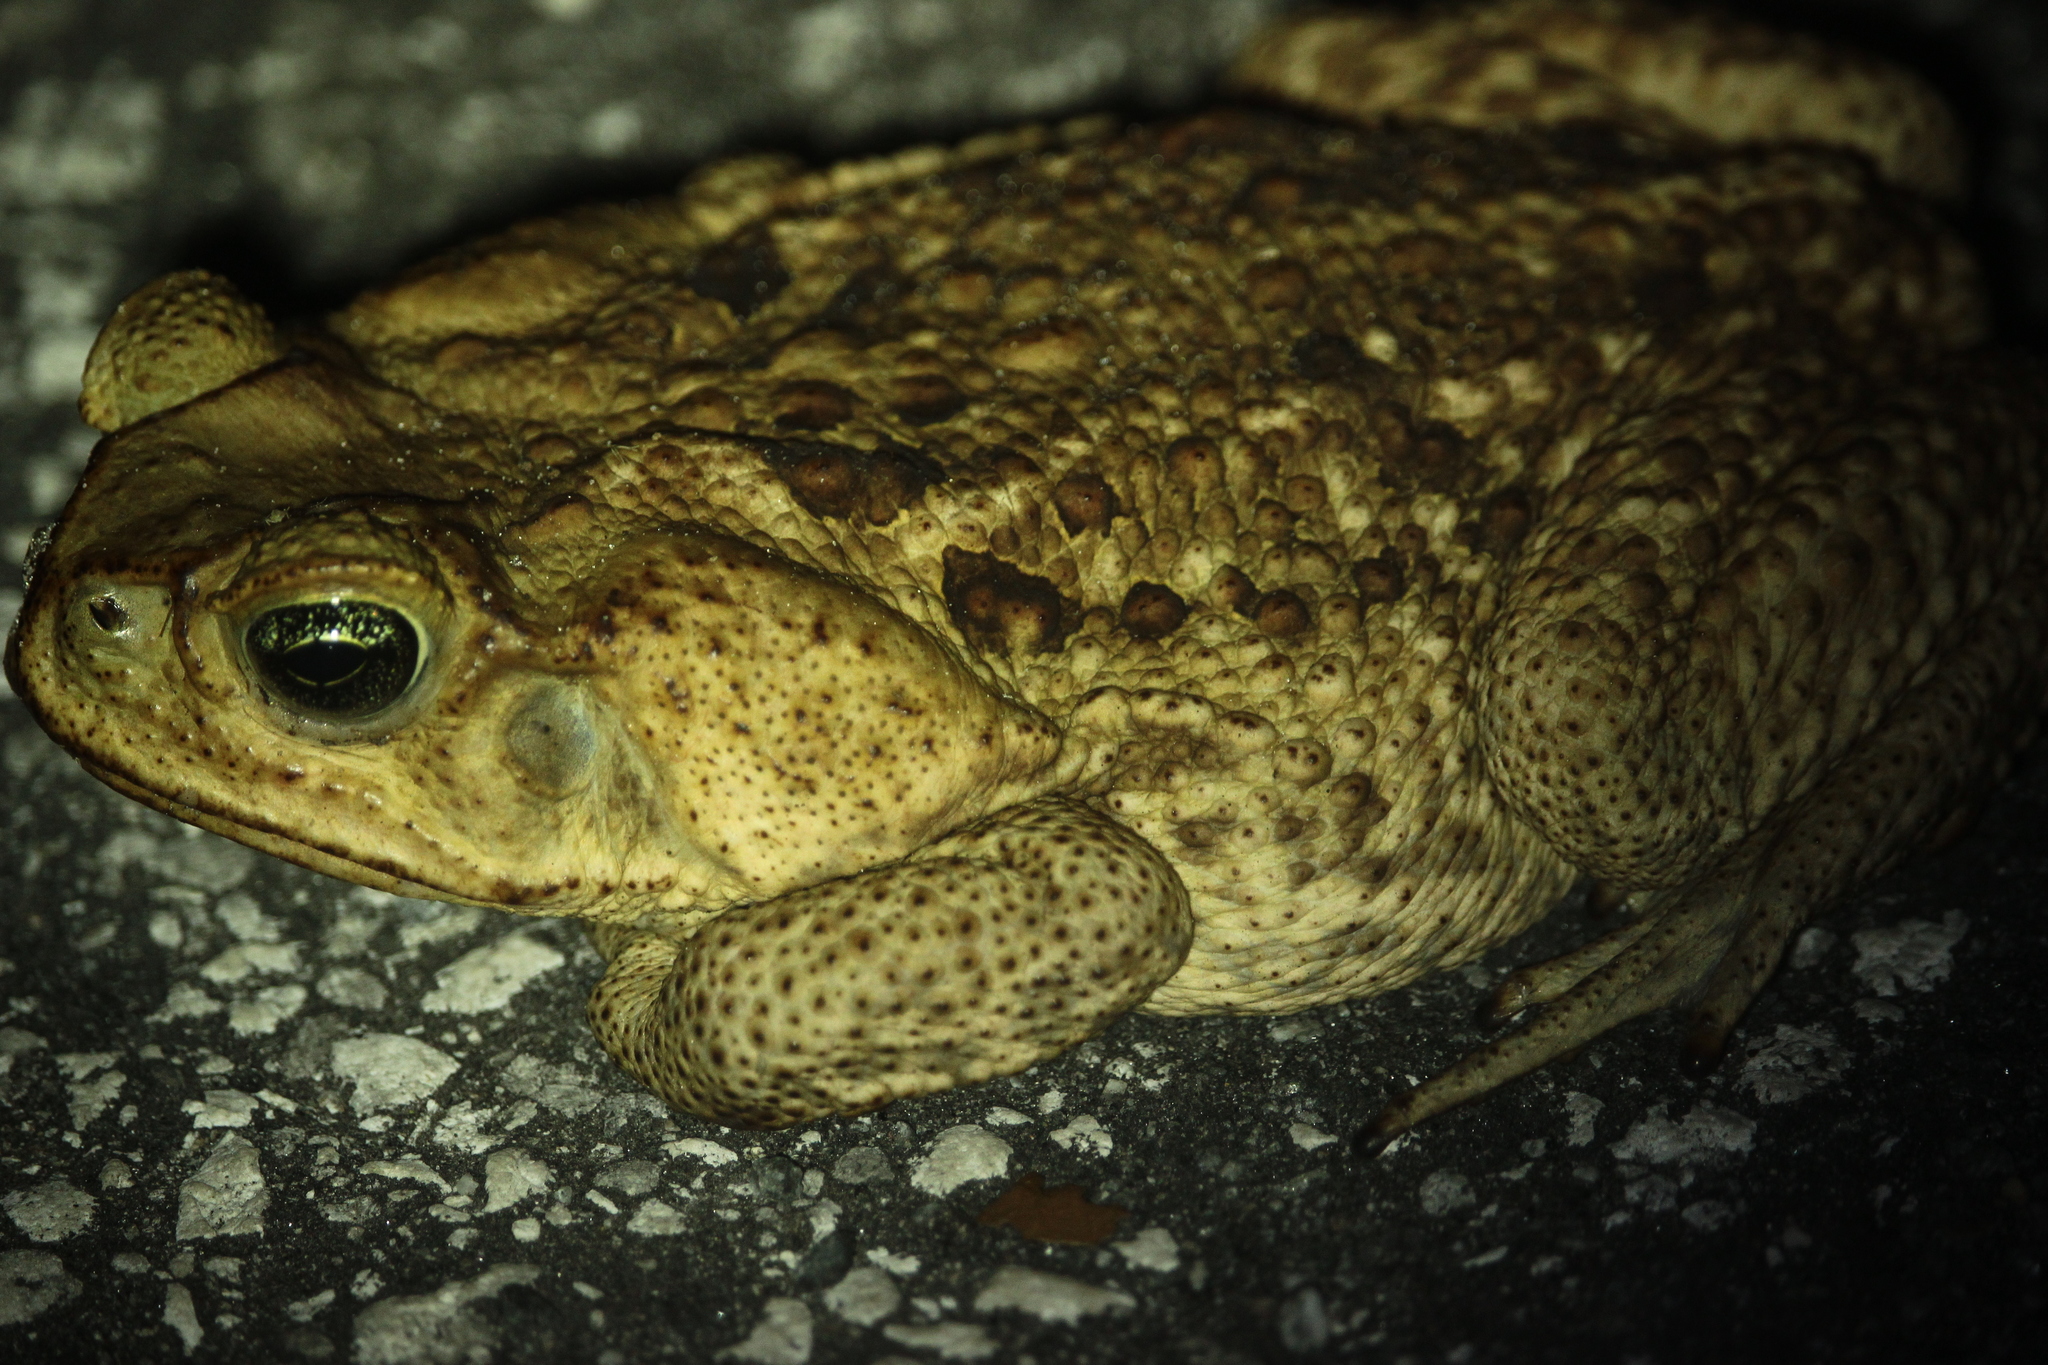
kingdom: Animalia
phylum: Chordata
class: Amphibia
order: Anura
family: Bufonidae
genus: Rhinella
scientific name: Rhinella marina
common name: Cane toad
